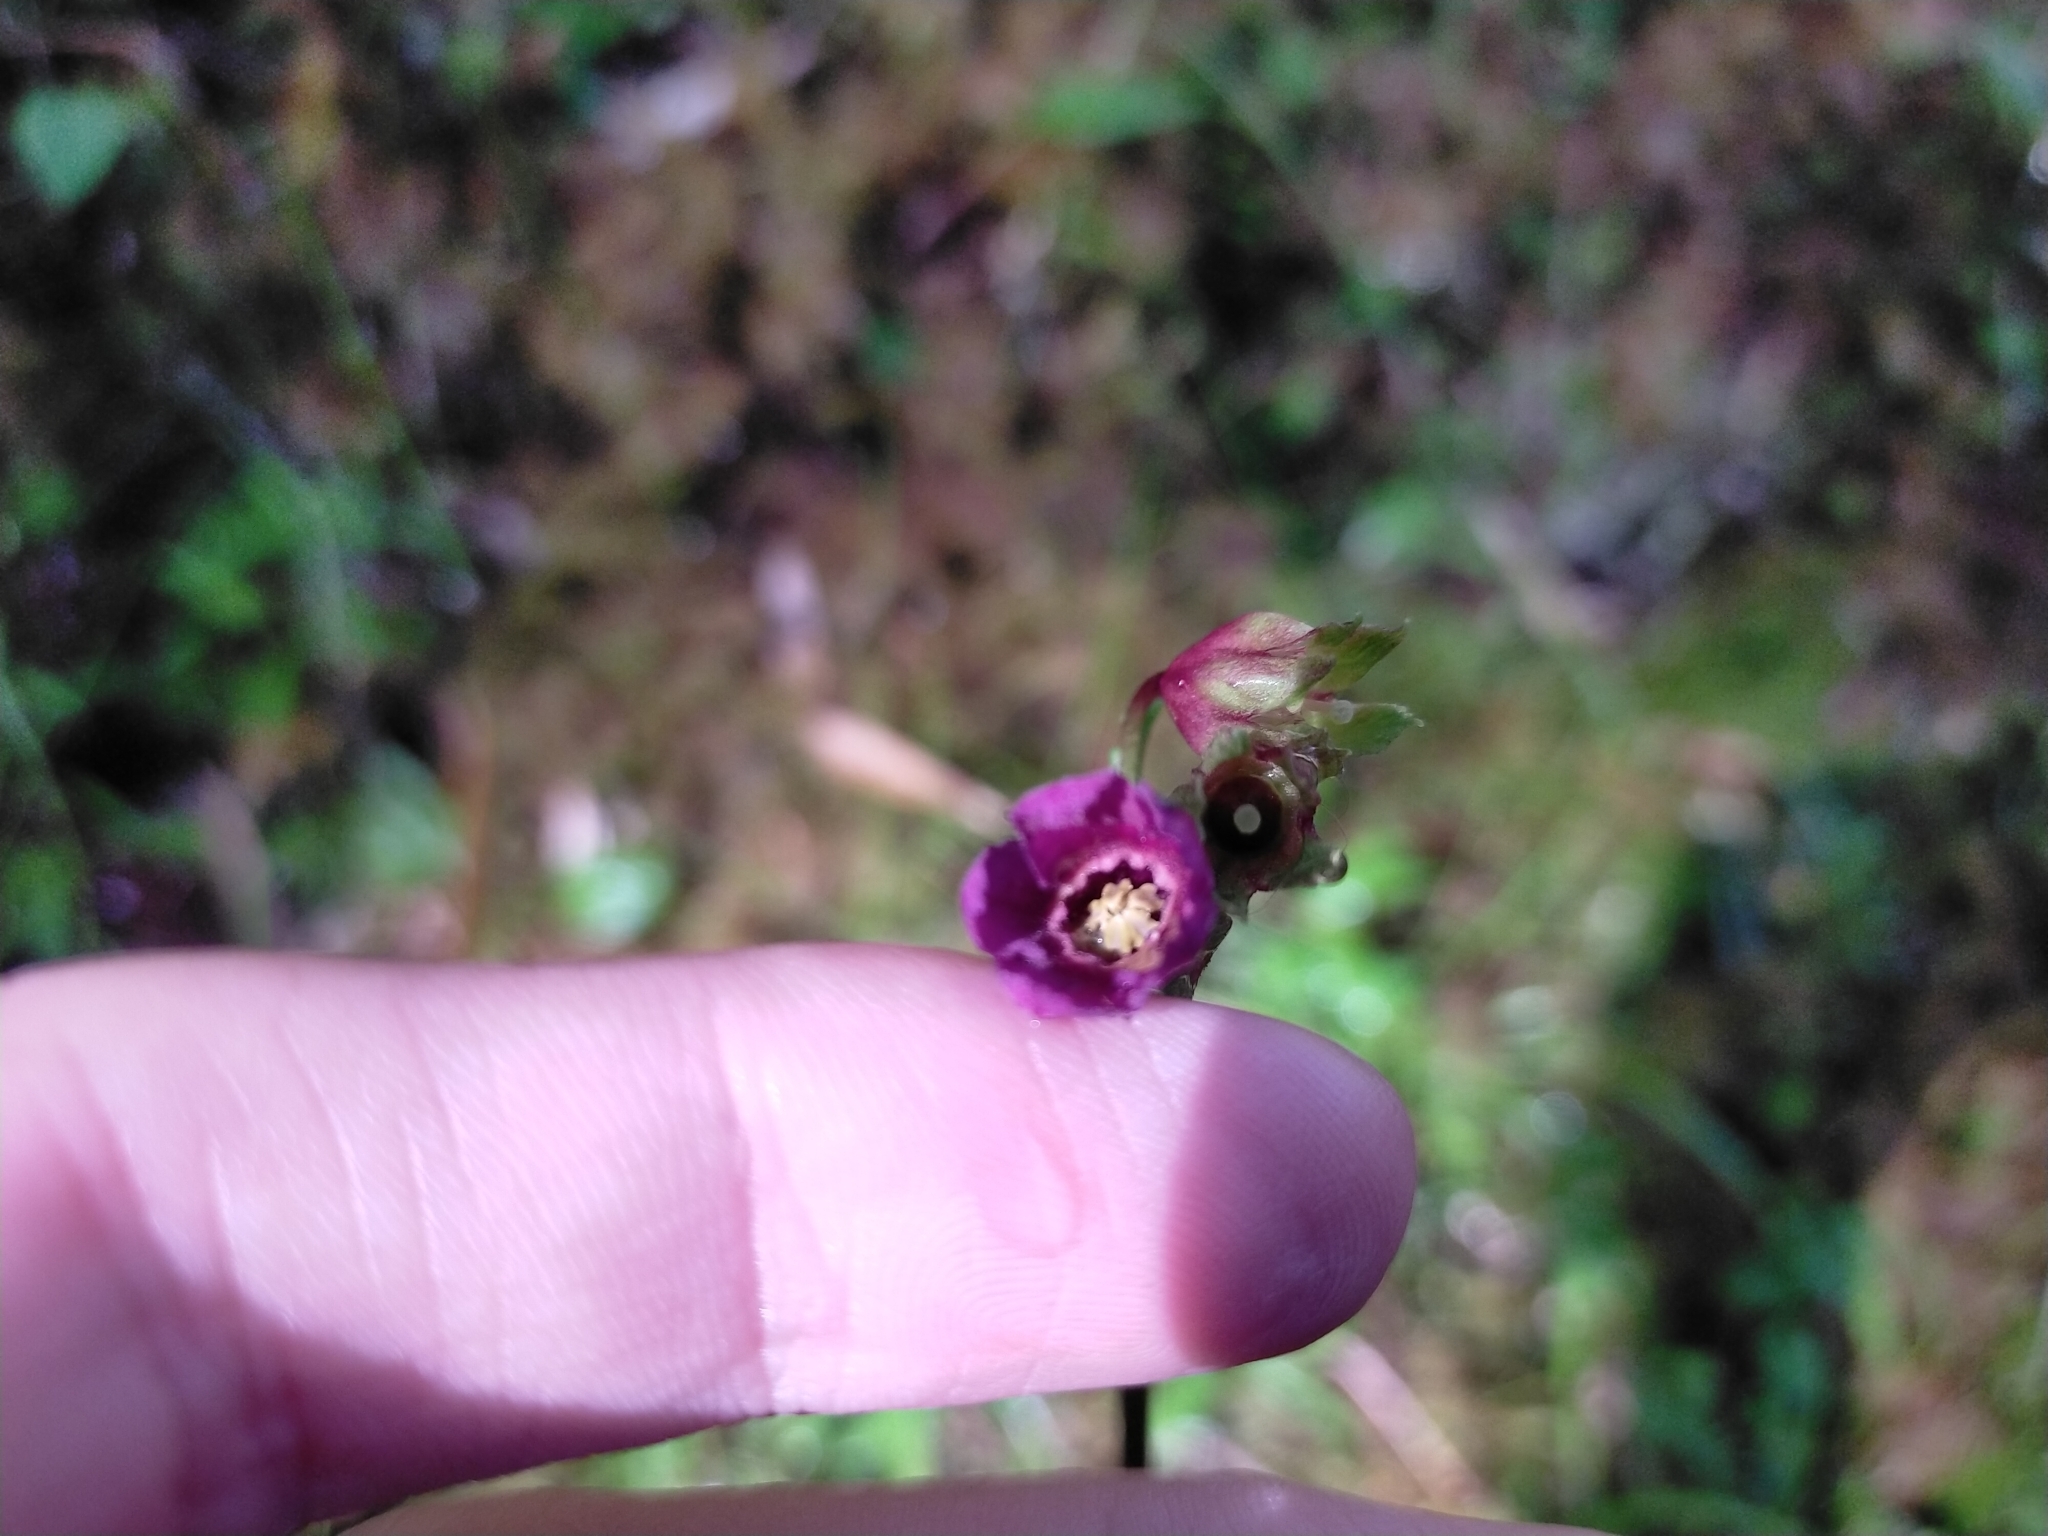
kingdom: Plantae
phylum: Tracheophyta
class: Magnoliopsida
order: Ericales
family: Primulaceae
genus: Primula
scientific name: Primula miyabeana
